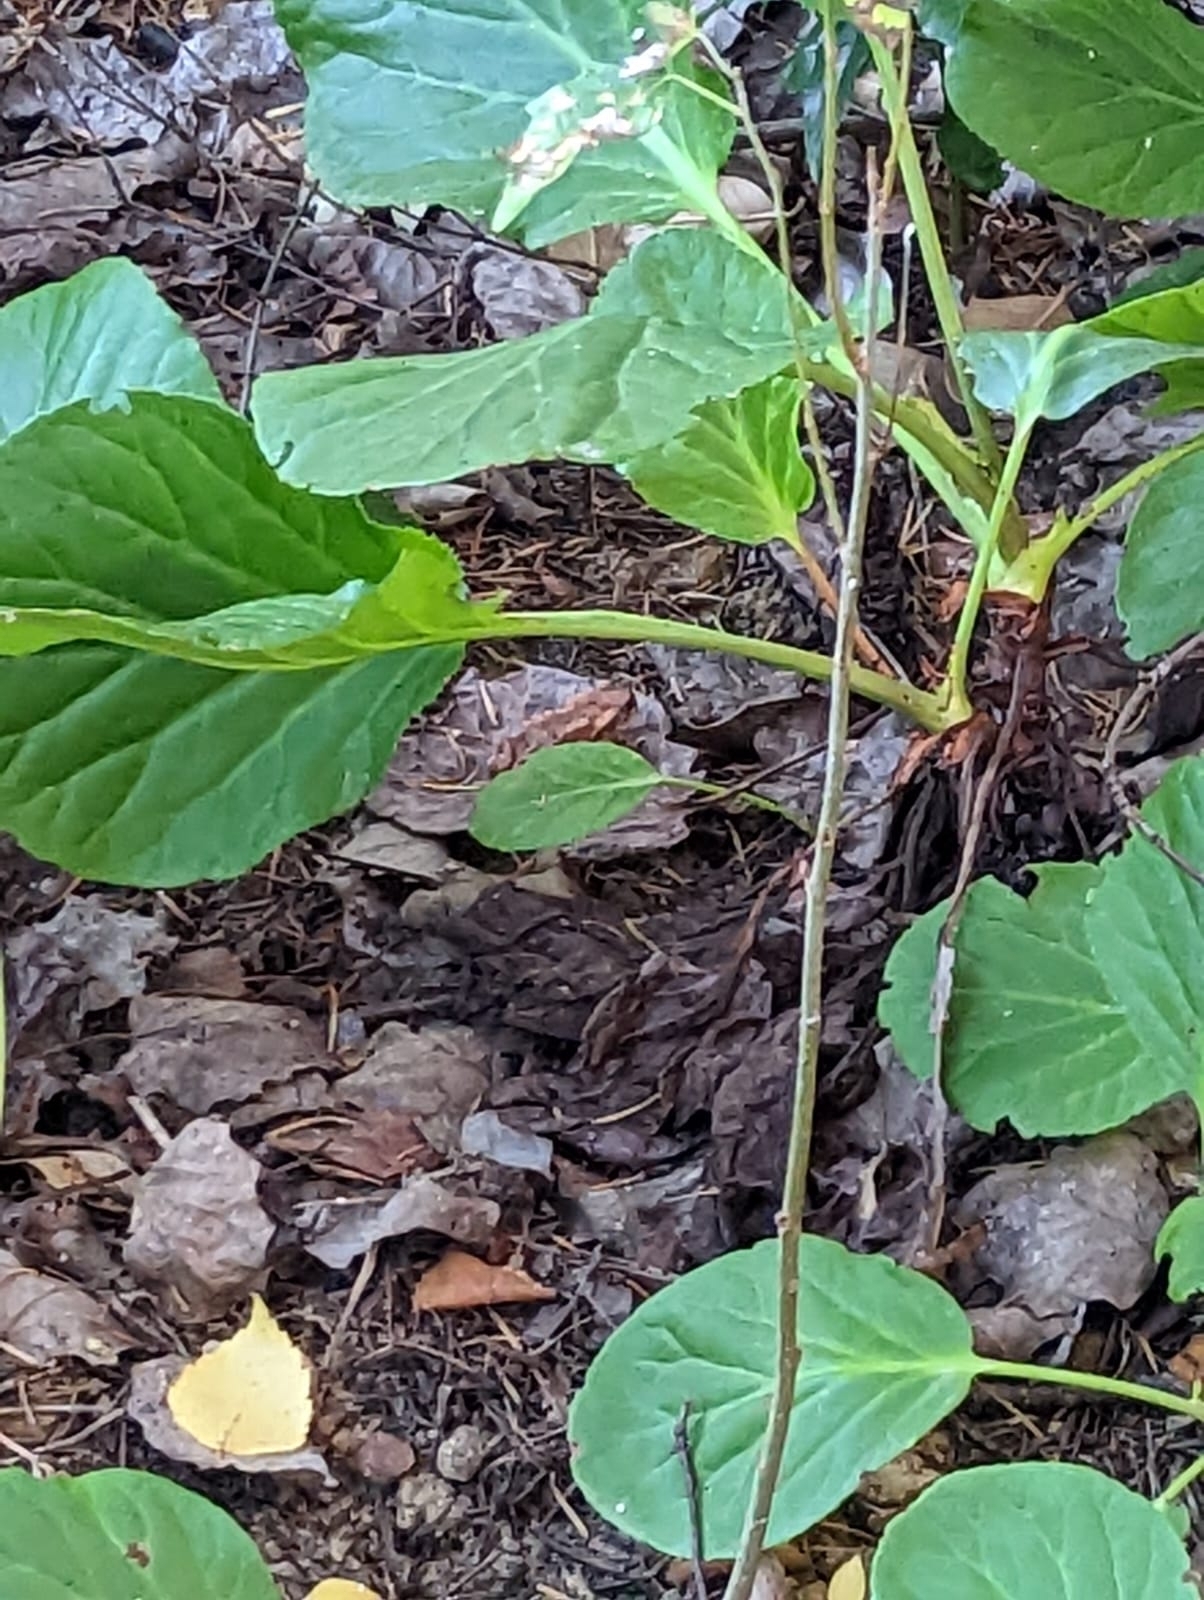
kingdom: Animalia
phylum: Chordata
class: Amphibia
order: Anura
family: Bufonidae
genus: Bufo
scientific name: Bufo spinosus
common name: Western common toad
